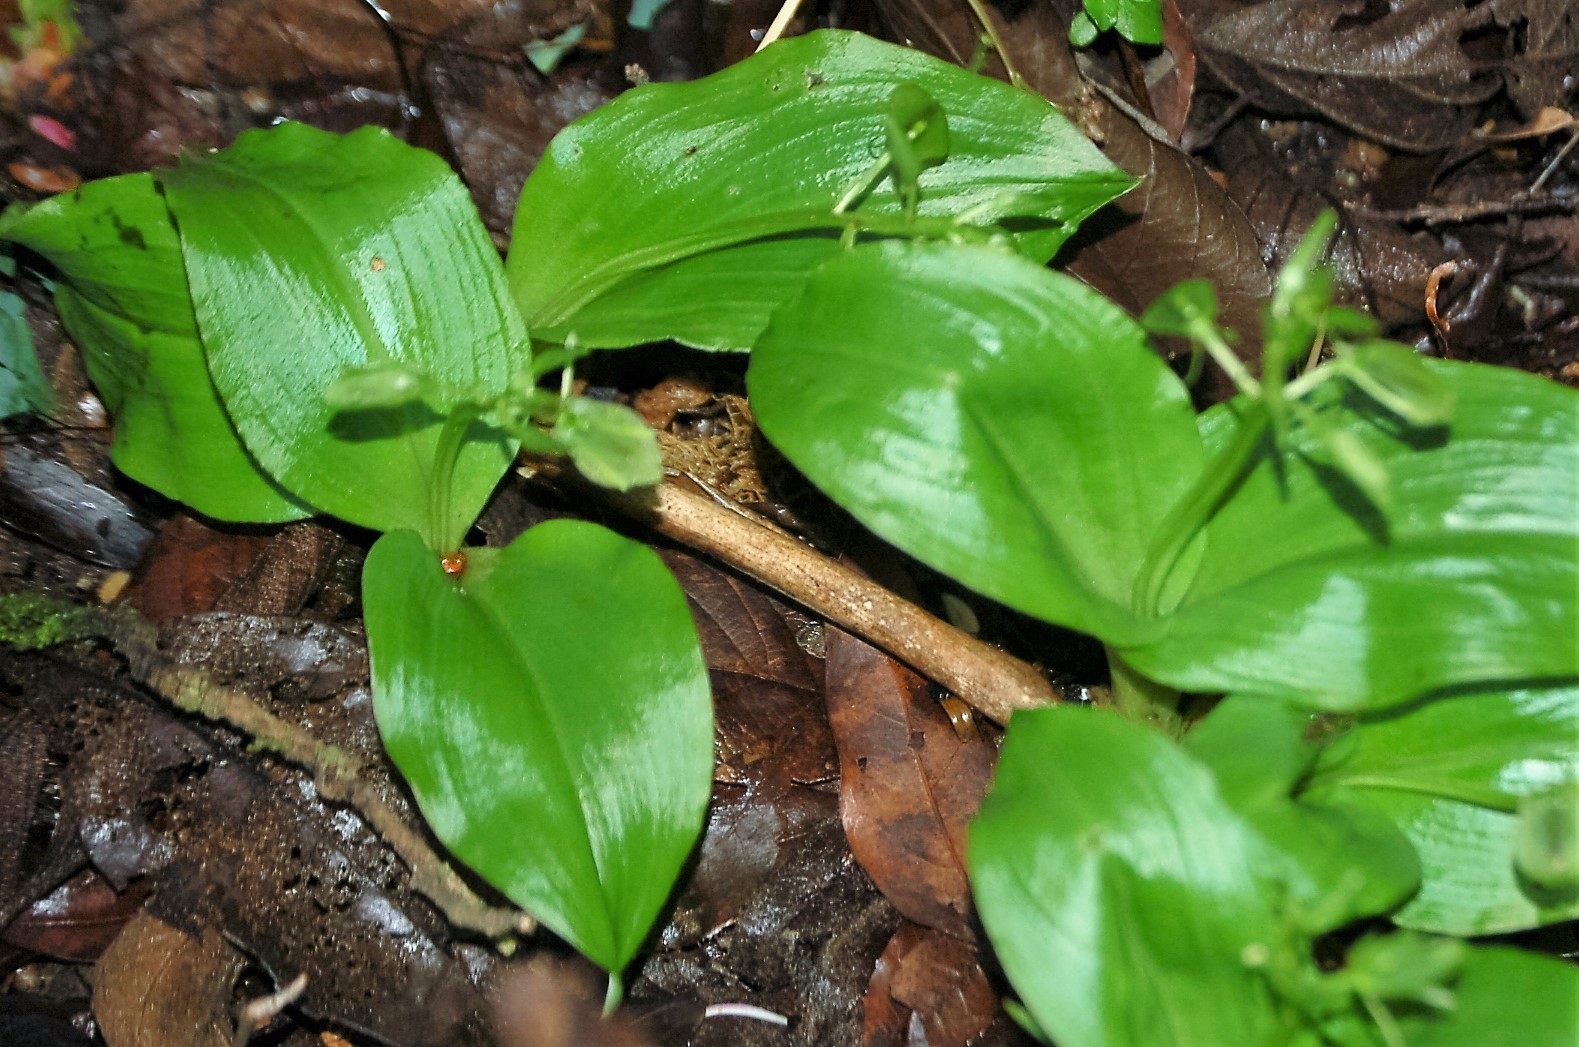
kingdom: Plantae
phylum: Tracheophyta
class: Liliopsida
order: Asparagales
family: Orchidaceae
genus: Liparis
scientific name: Liparis arnoglossophylla
